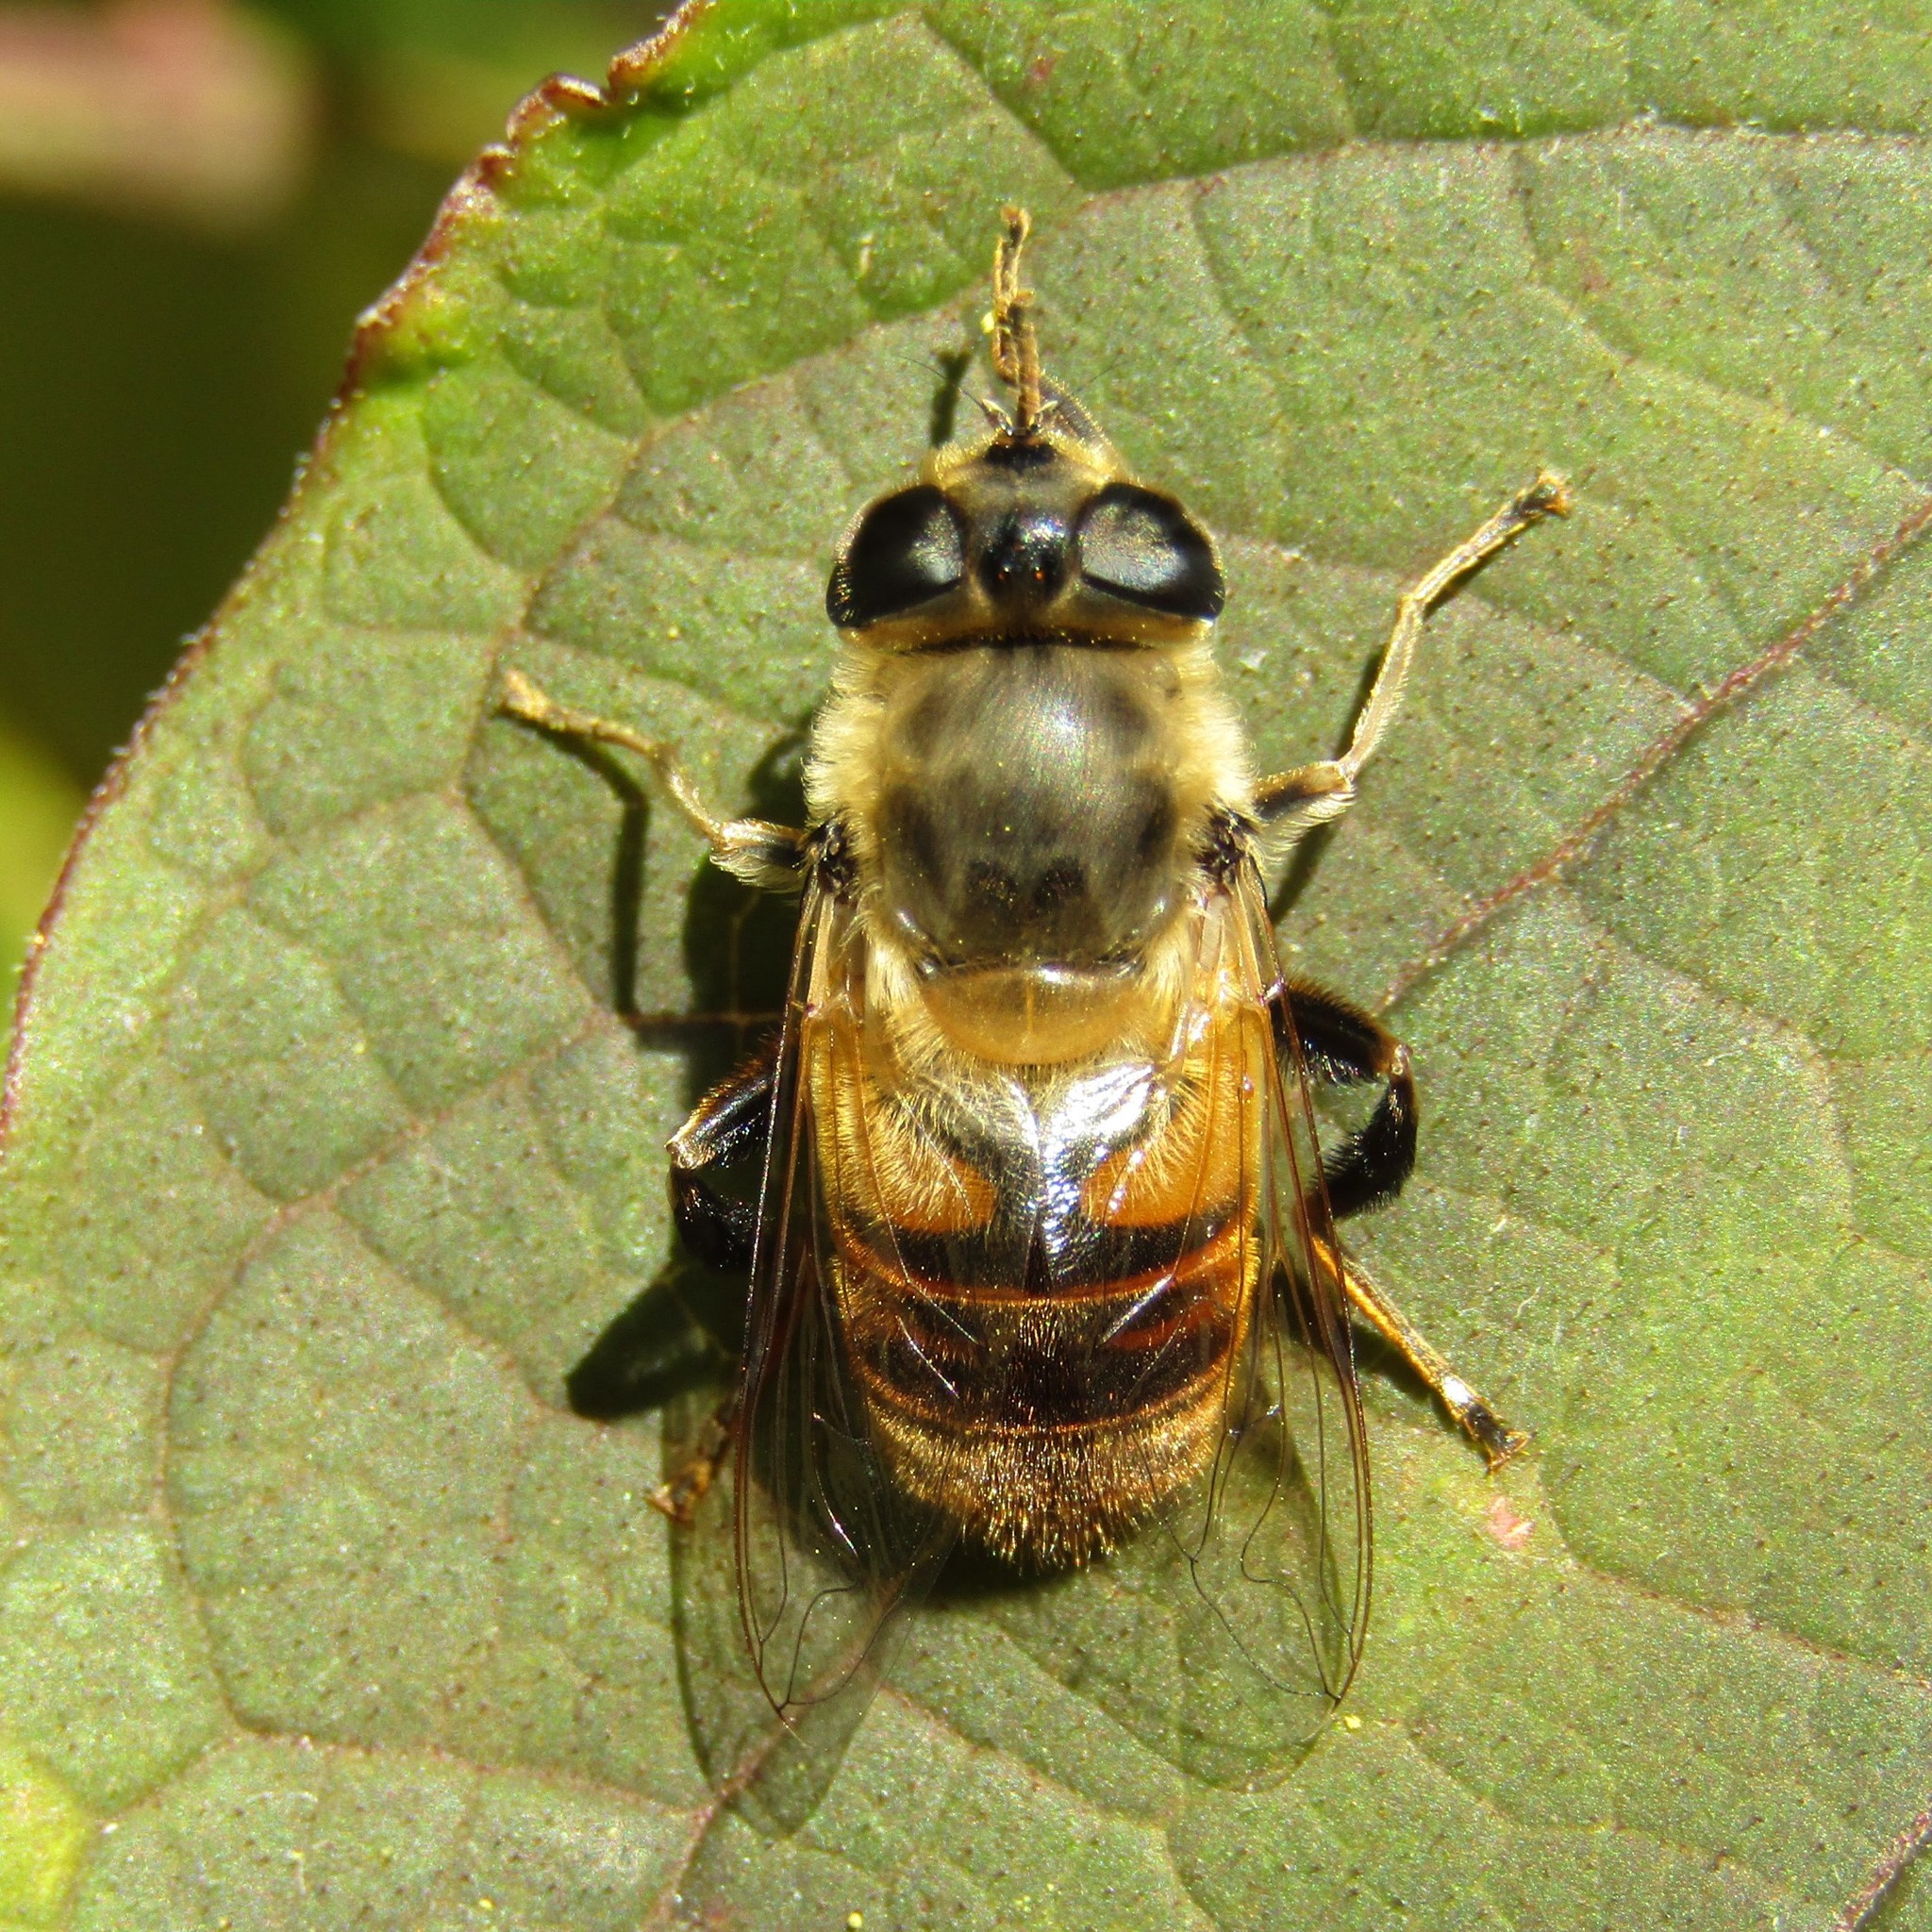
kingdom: Animalia
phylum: Arthropoda
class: Insecta
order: Diptera
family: Syrphidae
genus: Eristalis
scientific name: Eristalis tenax
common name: Drone fly
